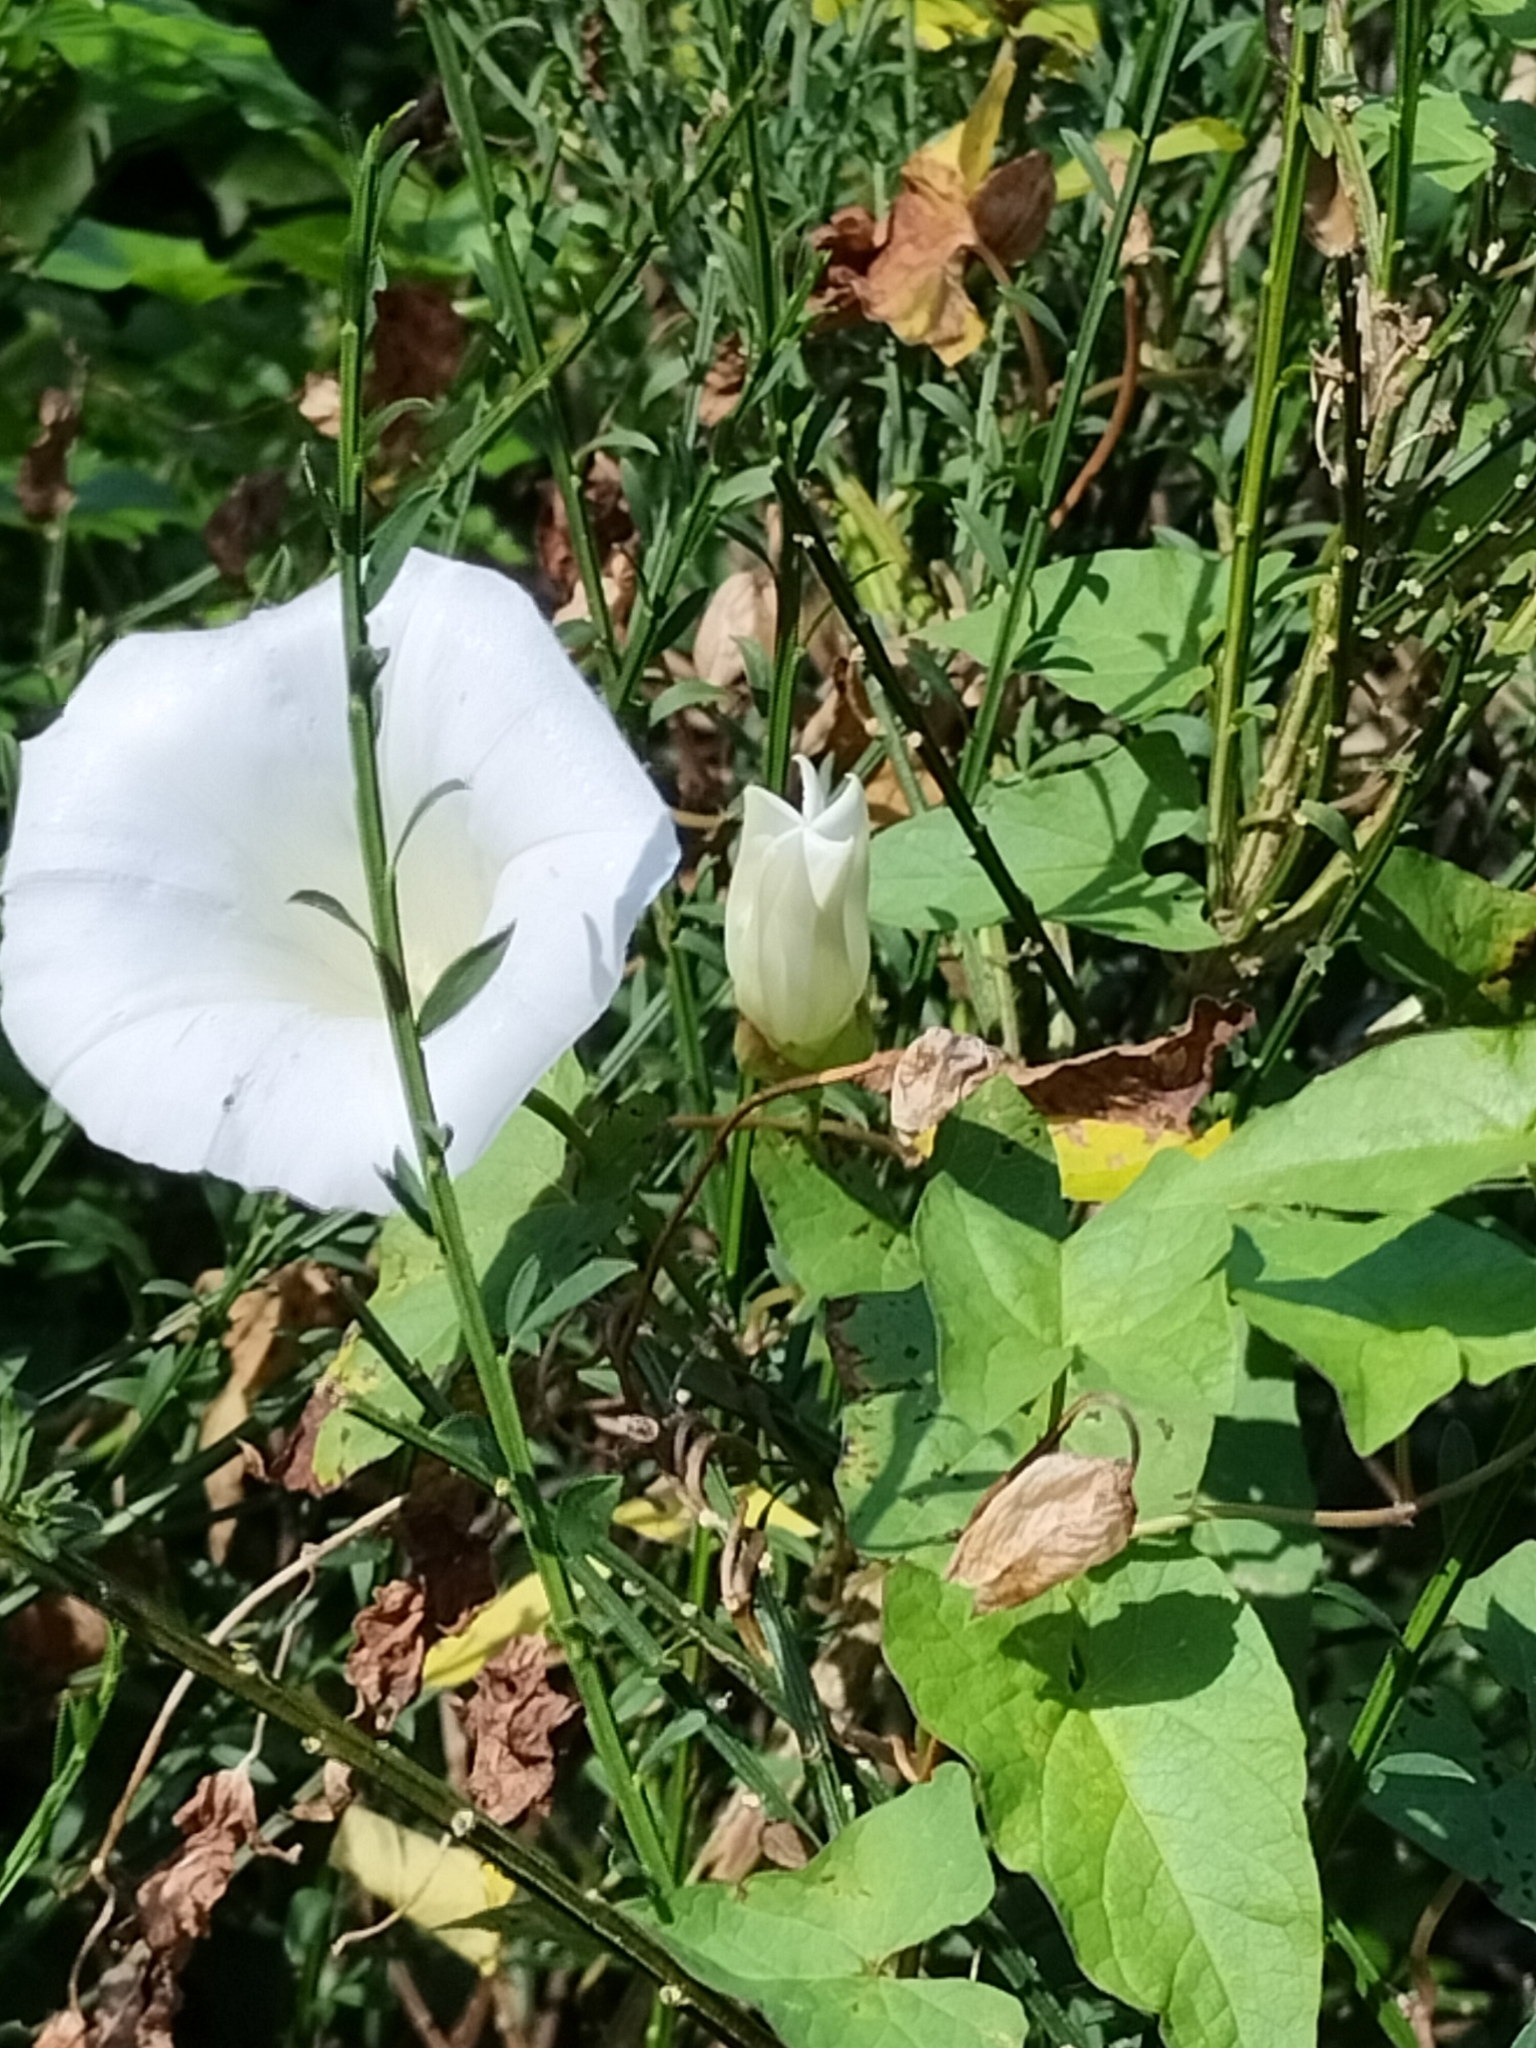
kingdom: Plantae
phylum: Tracheophyta
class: Magnoliopsida
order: Solanales
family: Convolvulaceae
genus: Calystegia
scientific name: Calystegia silvatica
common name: Large bindweed
